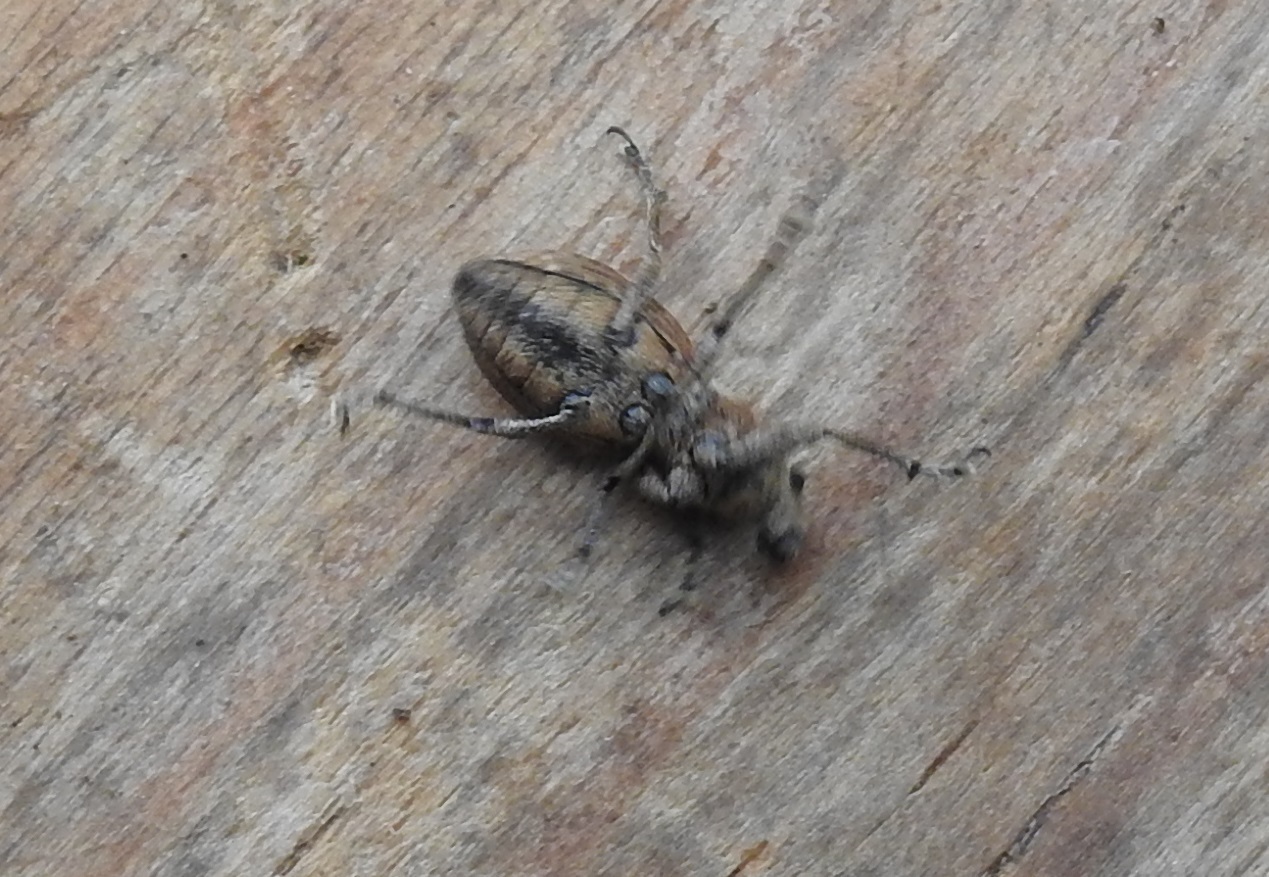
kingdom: Animalia
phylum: Arthropoda
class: Insecta
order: Coleoptera
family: Curculionidae
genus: Naupactus
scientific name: Naupactus cervinus
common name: Fuller rose beetle
